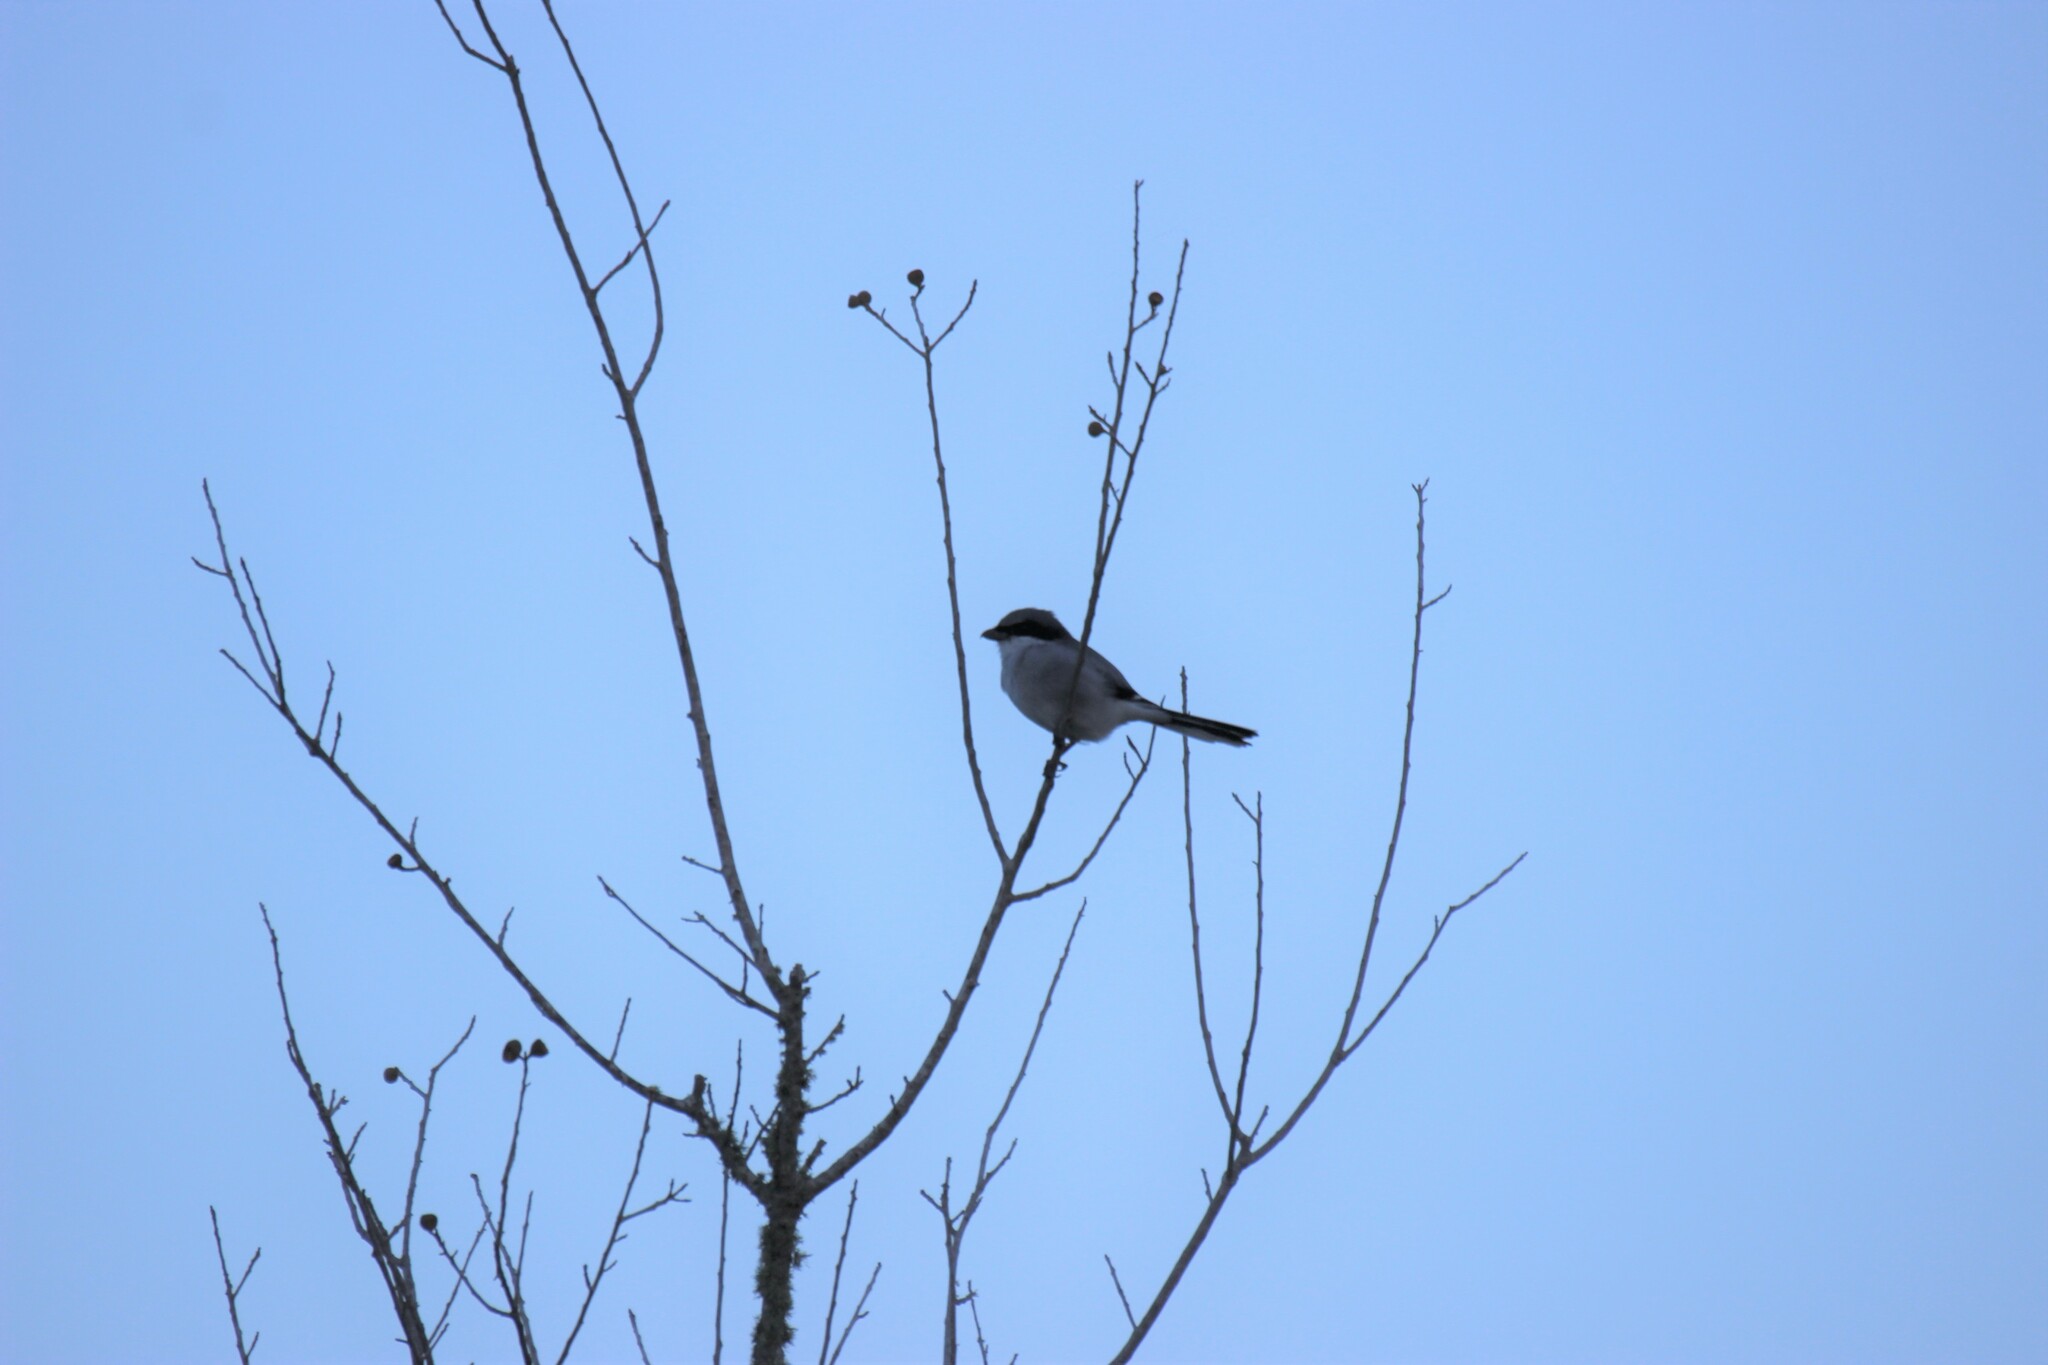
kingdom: Animalia
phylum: Chordata
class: Aves
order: Passeriformes
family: Laniidae
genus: Lanius
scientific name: Lanius ludovicianus
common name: Loggerhead shrike
